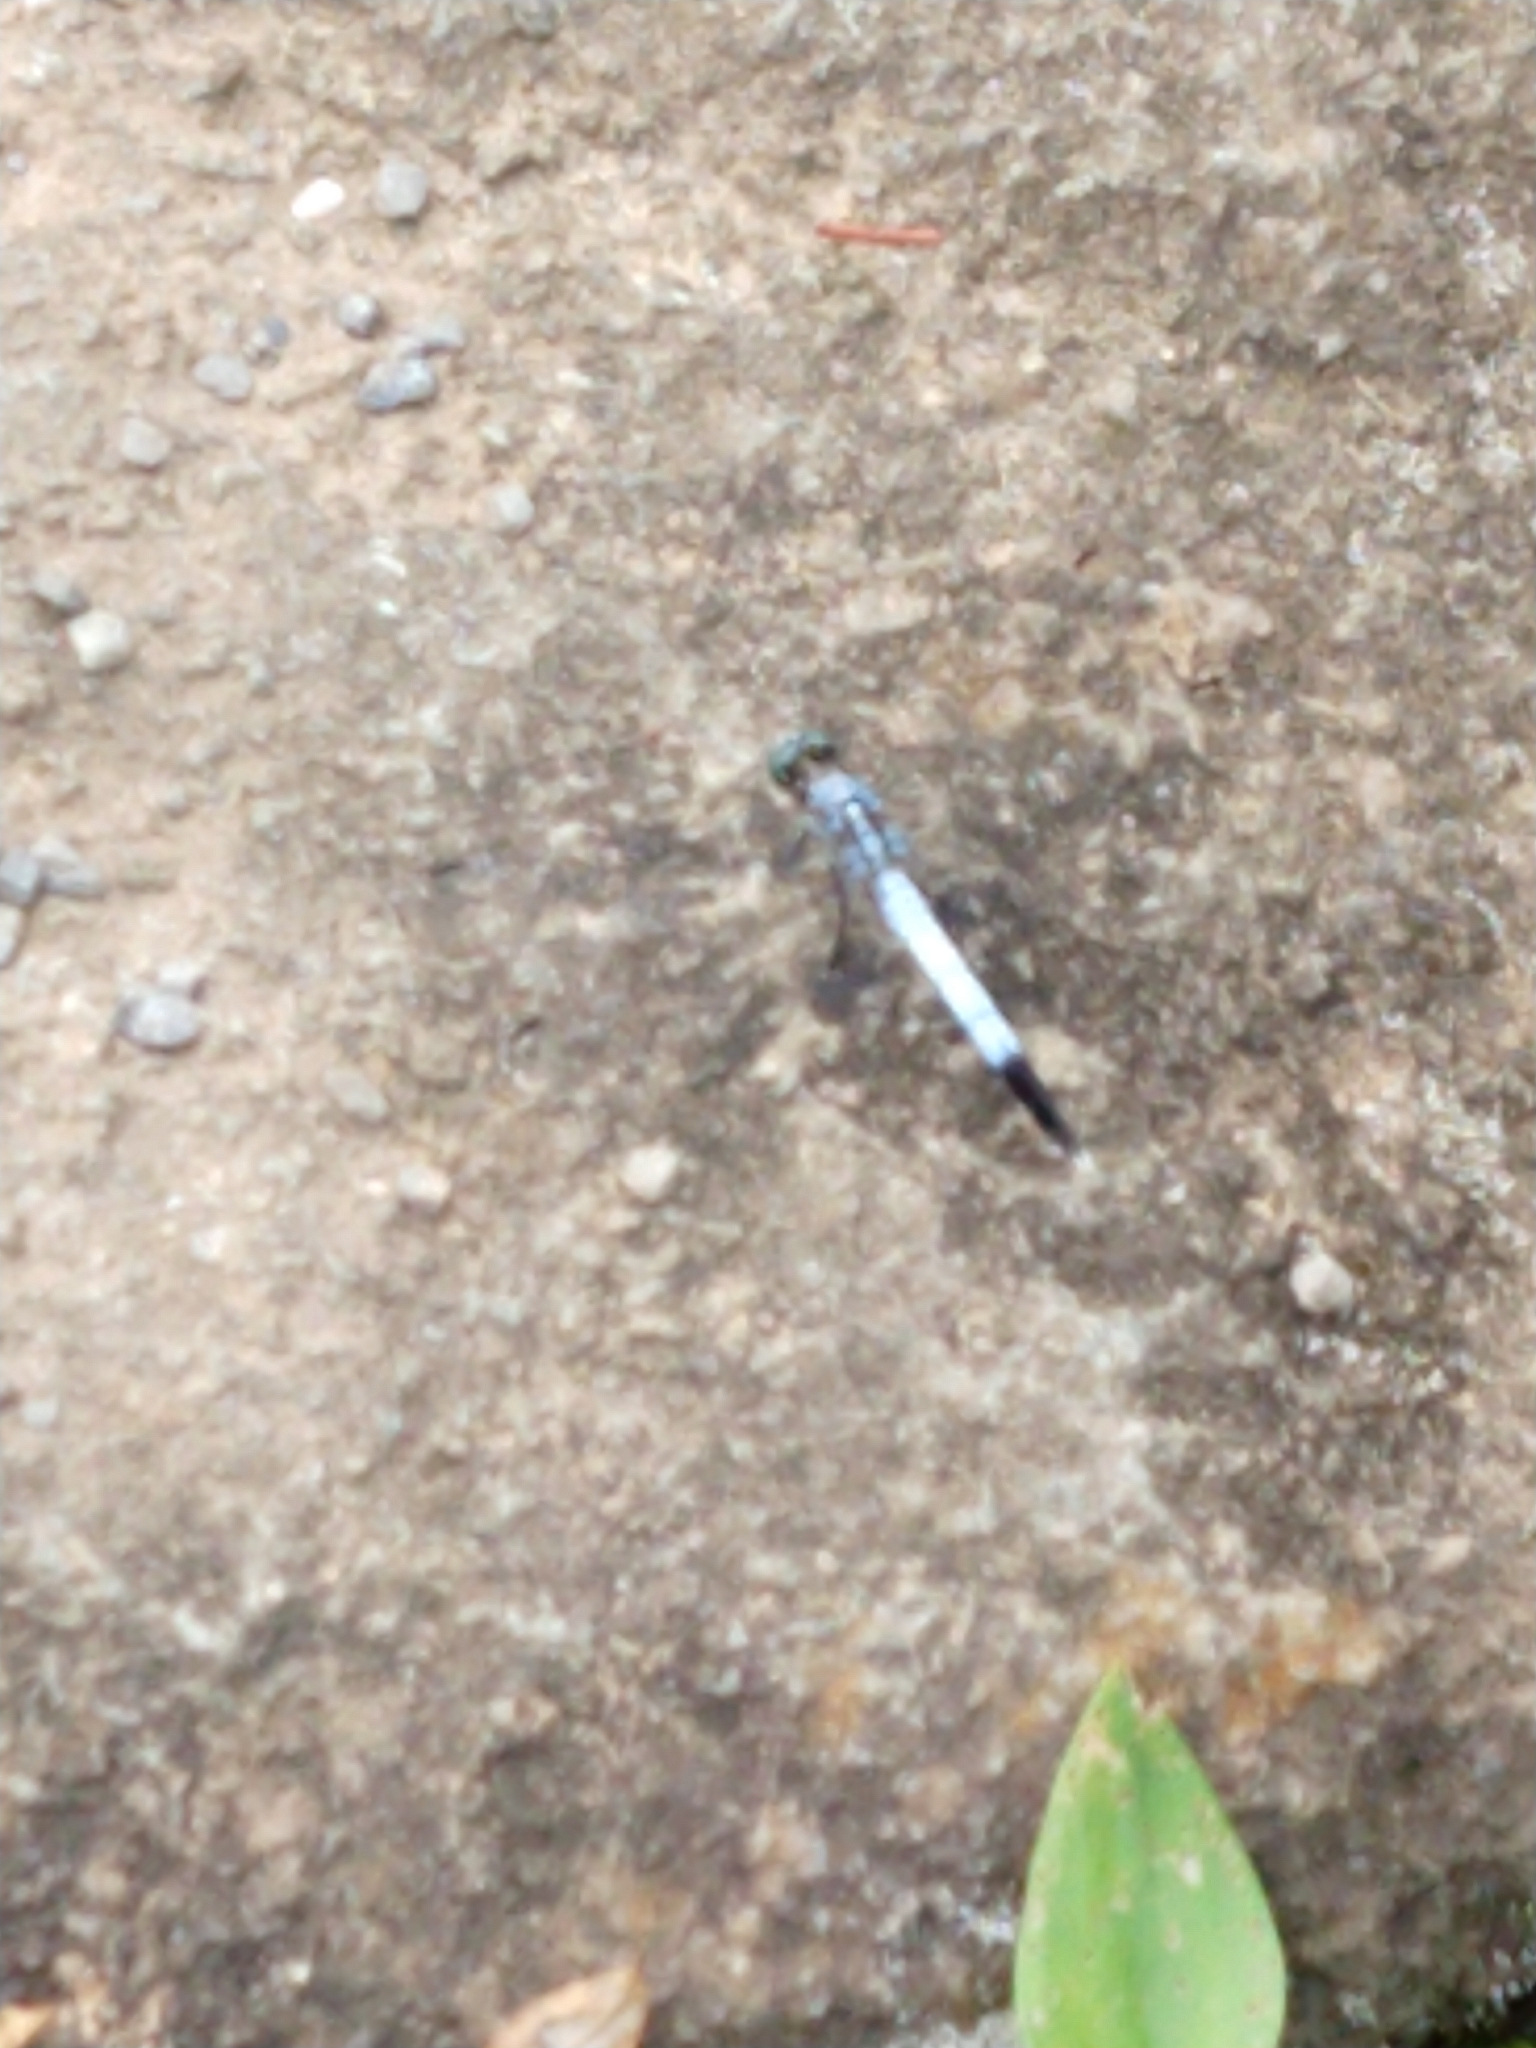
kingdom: Animalia
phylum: Arthropoda
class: Insecta
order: Odonata
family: Libellulidae
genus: Orthetrum
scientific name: Orthetrum albistylum
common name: White-tailed skimmer
